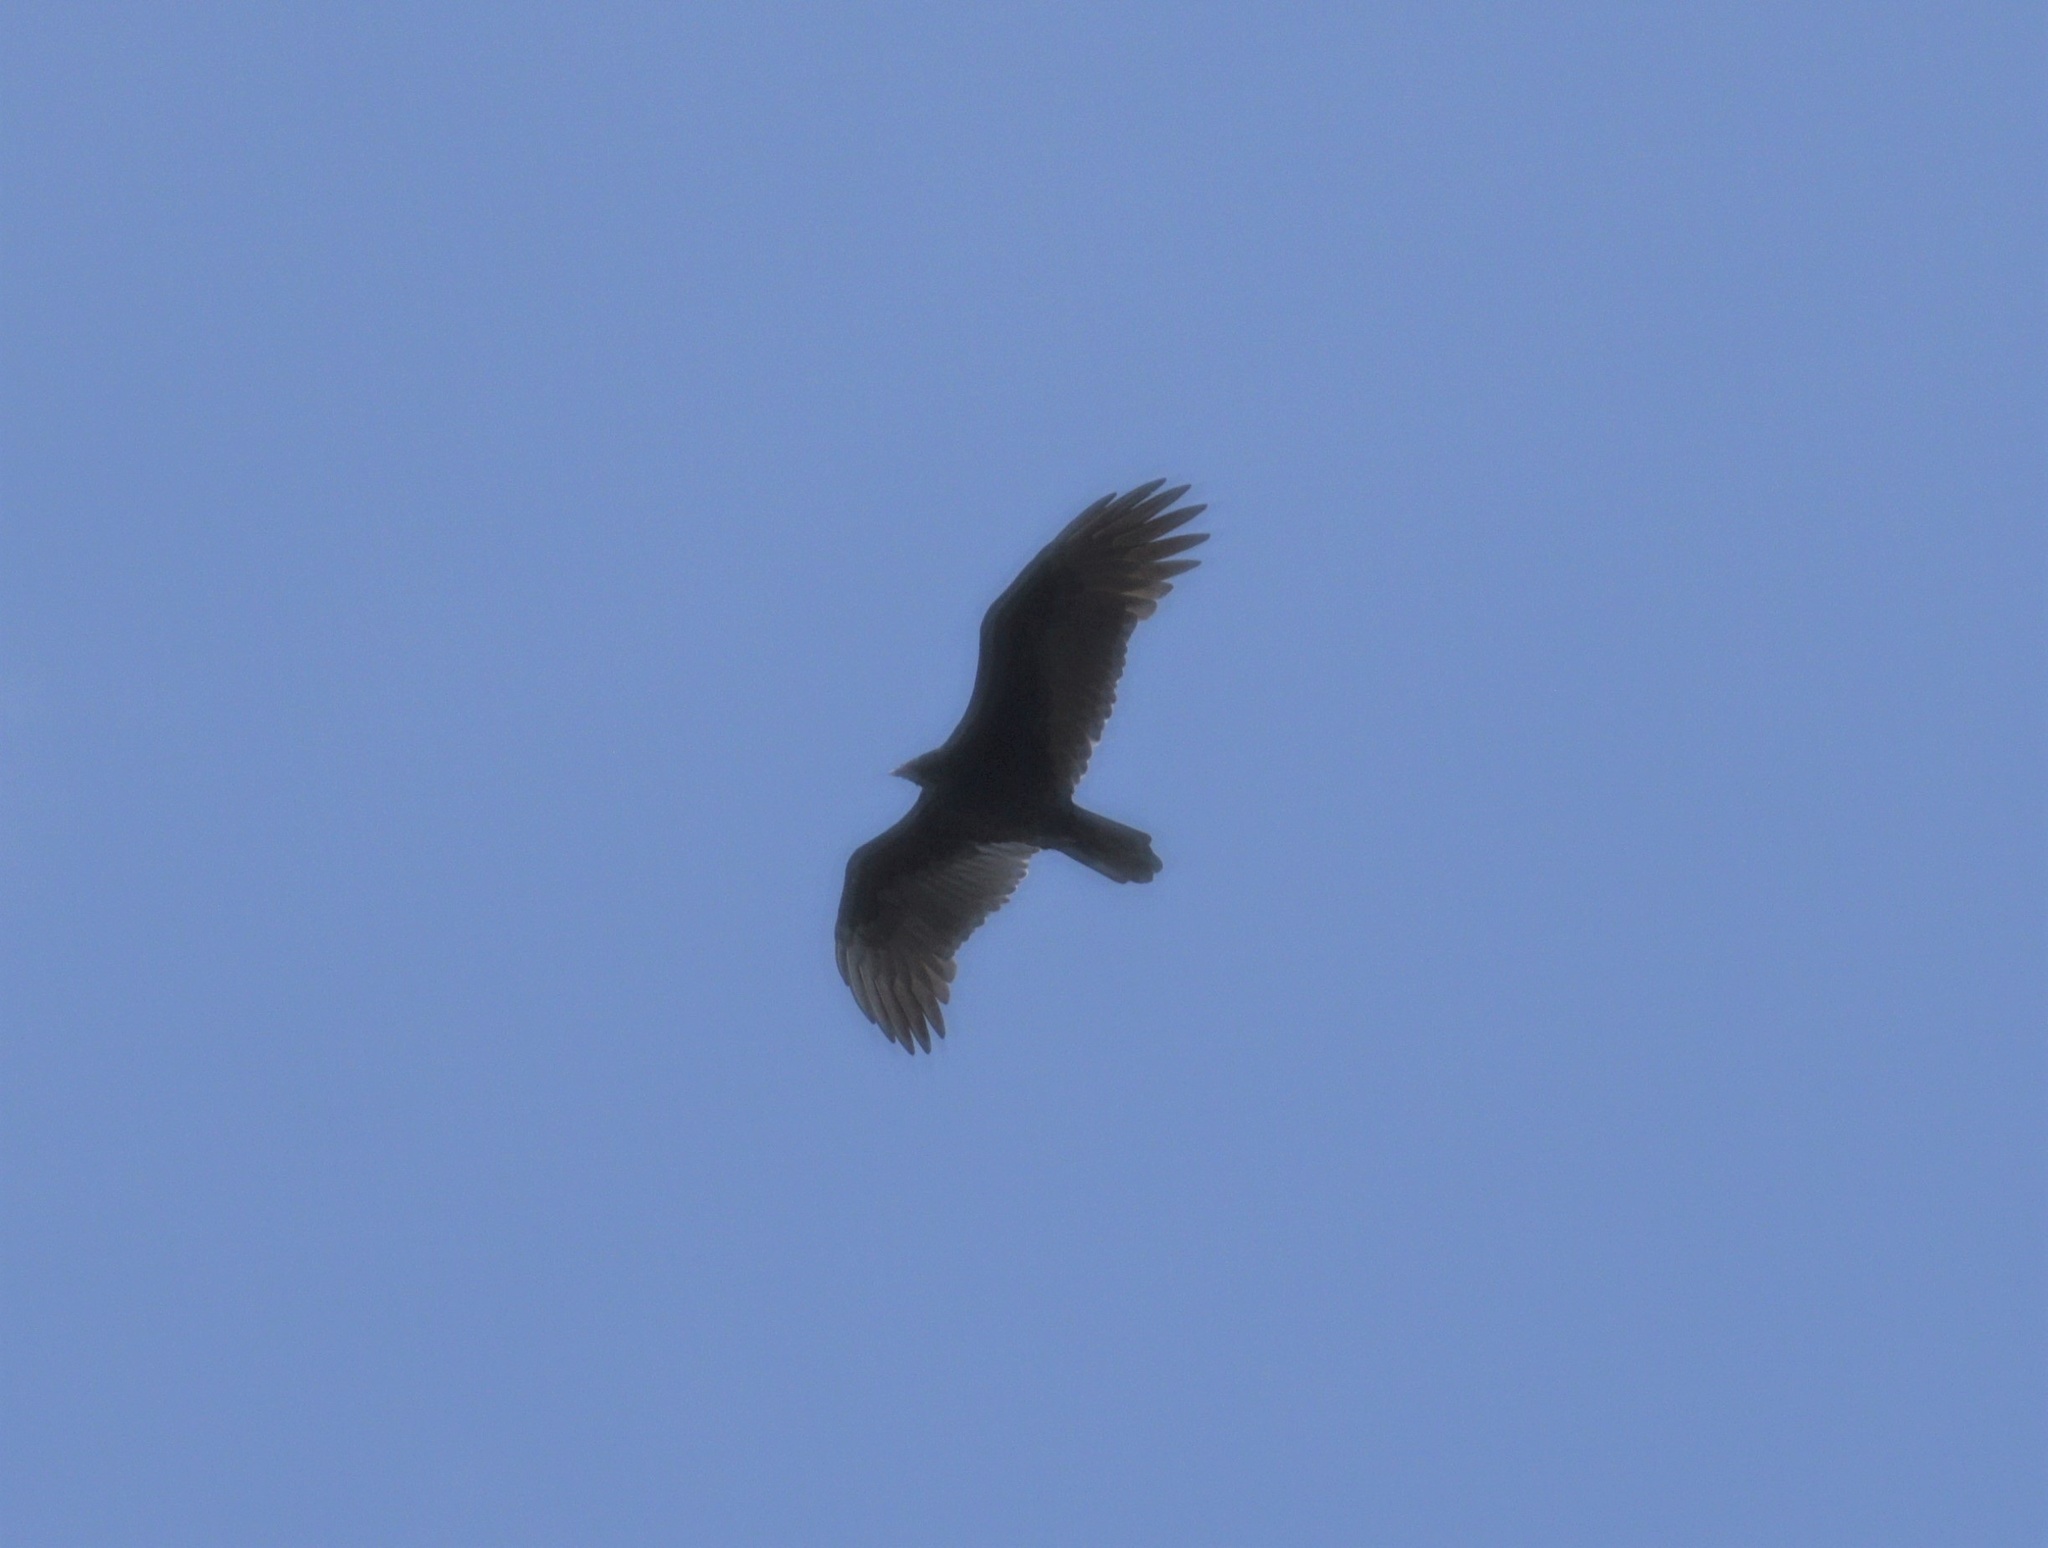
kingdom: Animalia
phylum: Chordata
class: Aves
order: Accipitriformes
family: Cathartidae
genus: Cathartes
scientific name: Cathartes aura
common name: Turkey vulture
